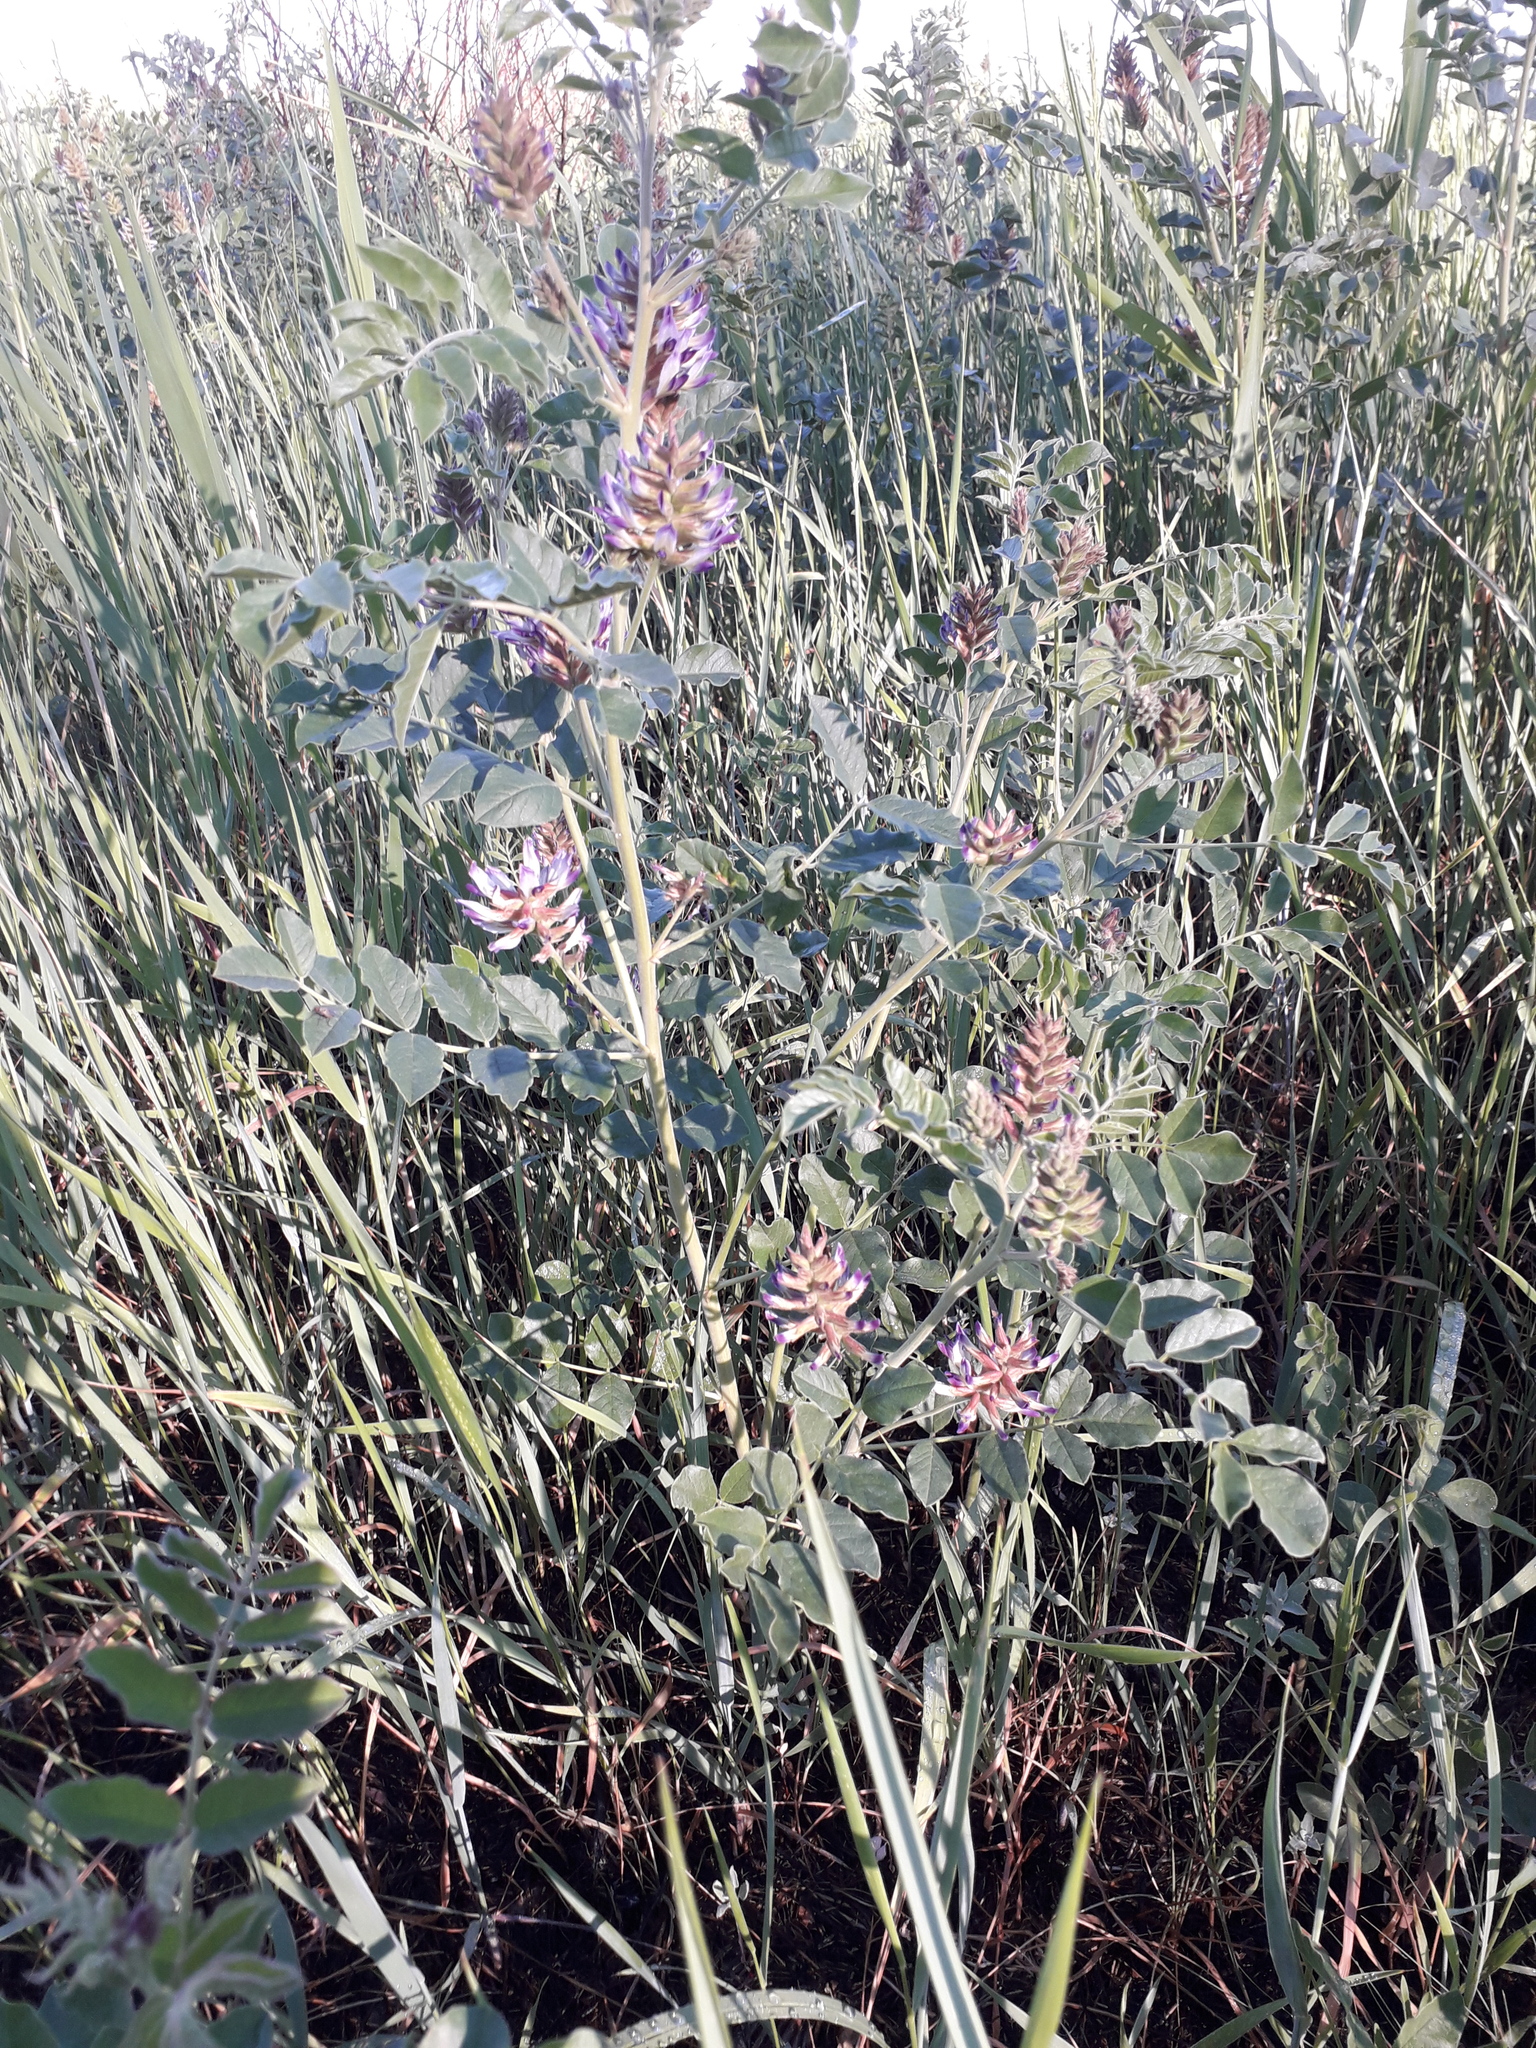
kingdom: Plantae
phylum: Tracheophyta
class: Magnoliopsida
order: Fabales
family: Fabaceae
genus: Glycyrrhiza
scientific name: Glycyrrhiza uralensis
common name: Chinese licorice
